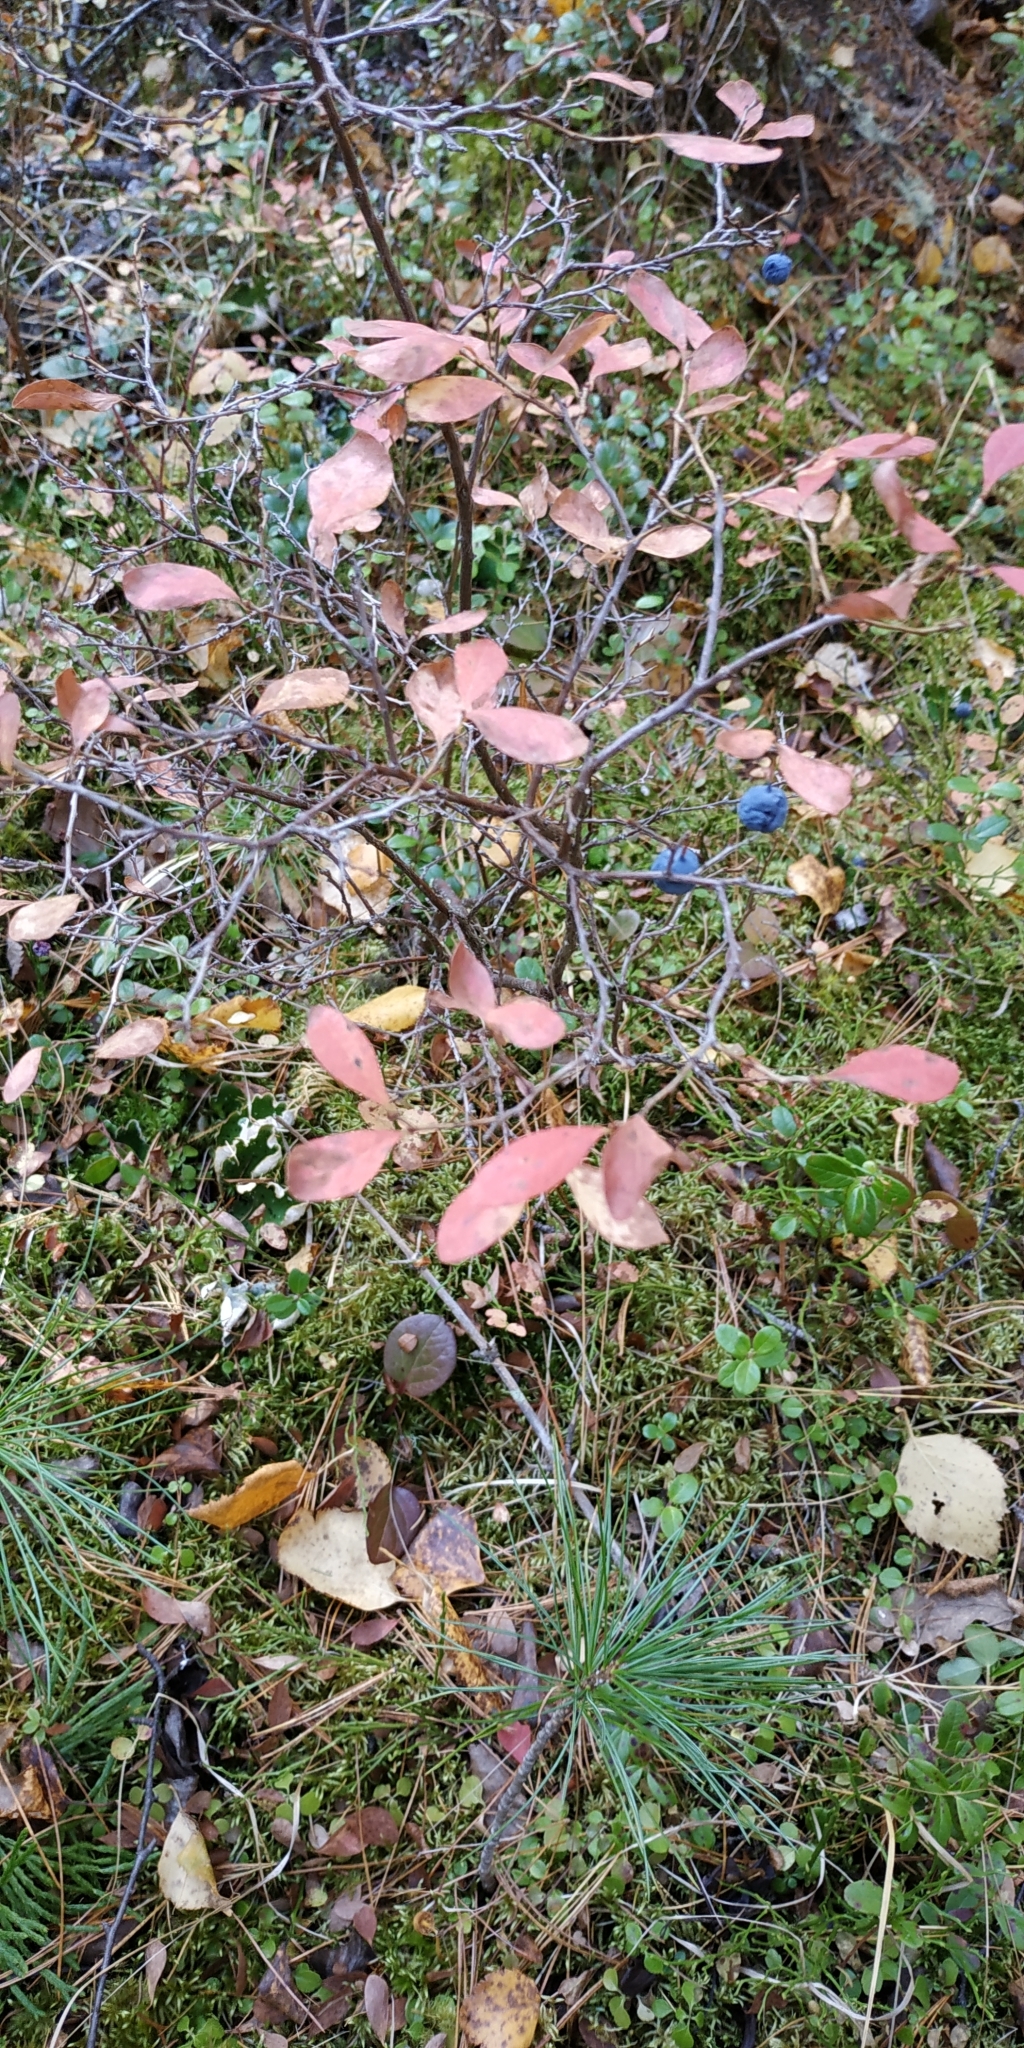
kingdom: Plantae
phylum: Tracheophyta
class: Magnoliopsida
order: Ericales
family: Ericaceae
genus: Vaccinium
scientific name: Vaccinium uliginosum
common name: Bog bilberry
